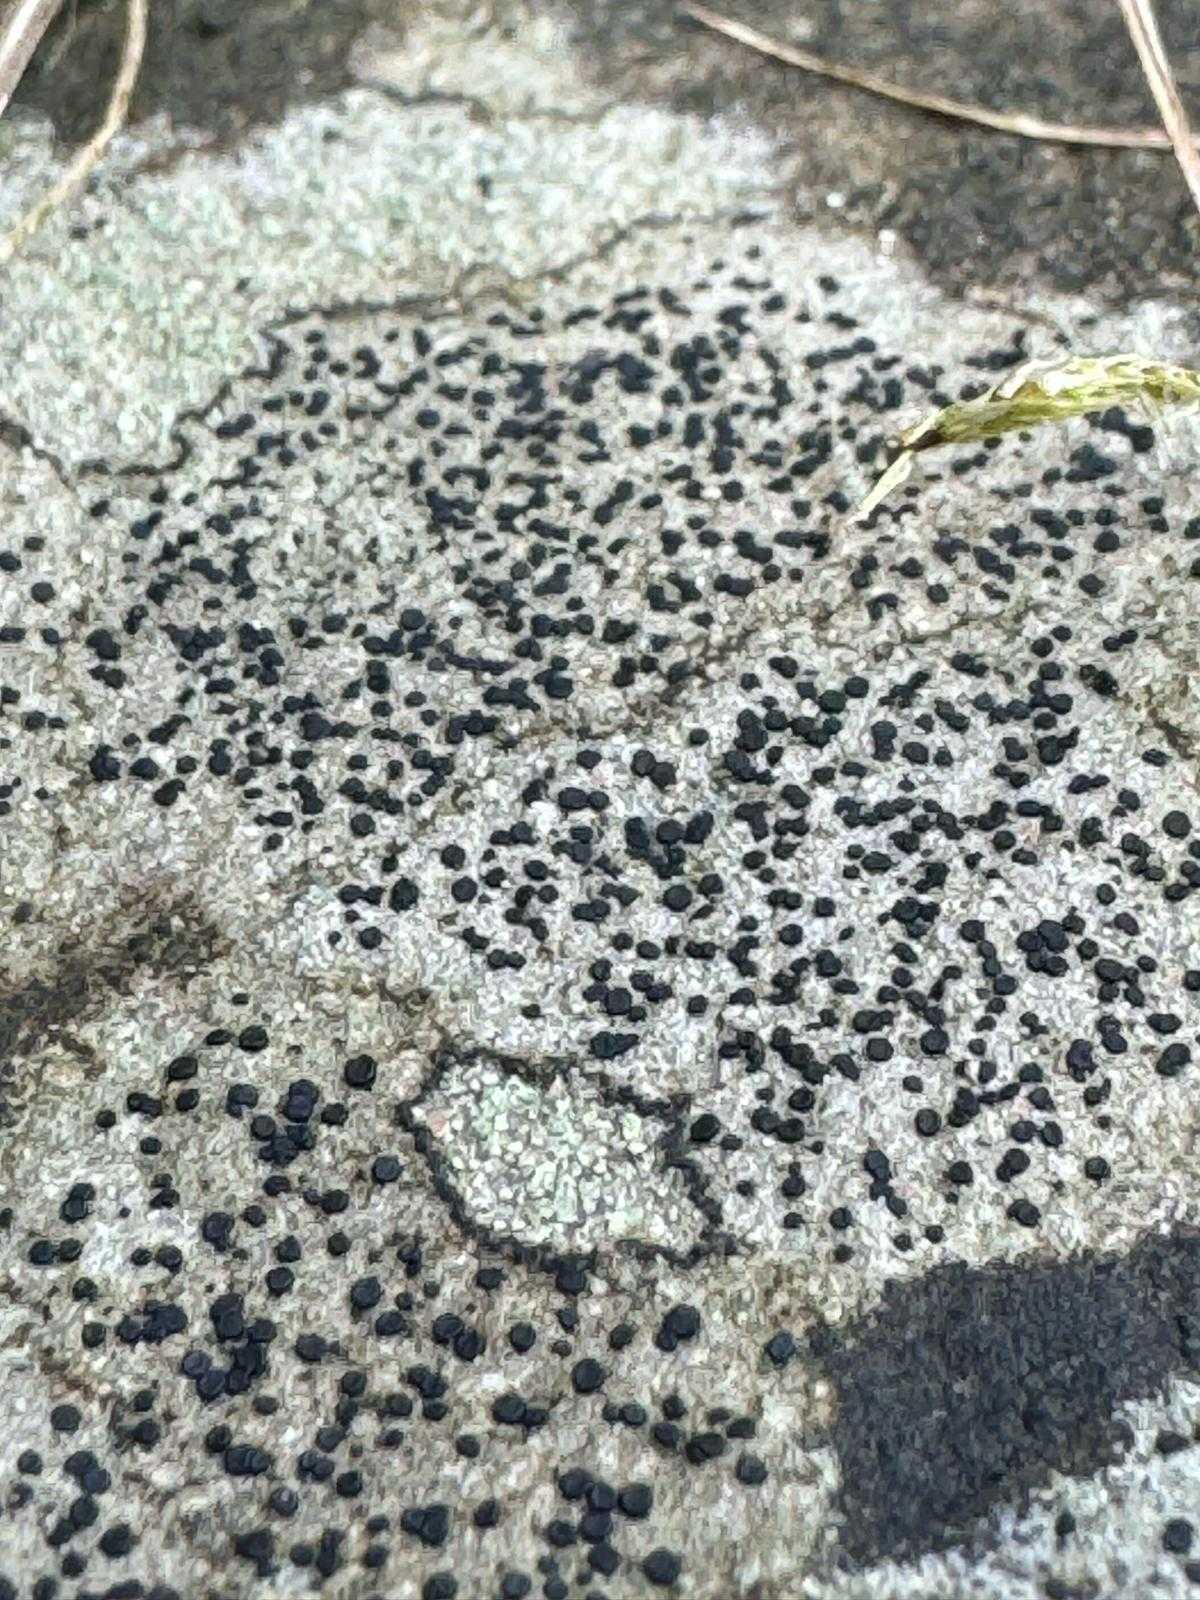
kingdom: Fungi
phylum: Ascomycota
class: Lecanoromycetes
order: Lecanorales
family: Lecanoraceae
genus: Lecidella
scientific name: Lecidella elaeochroma
